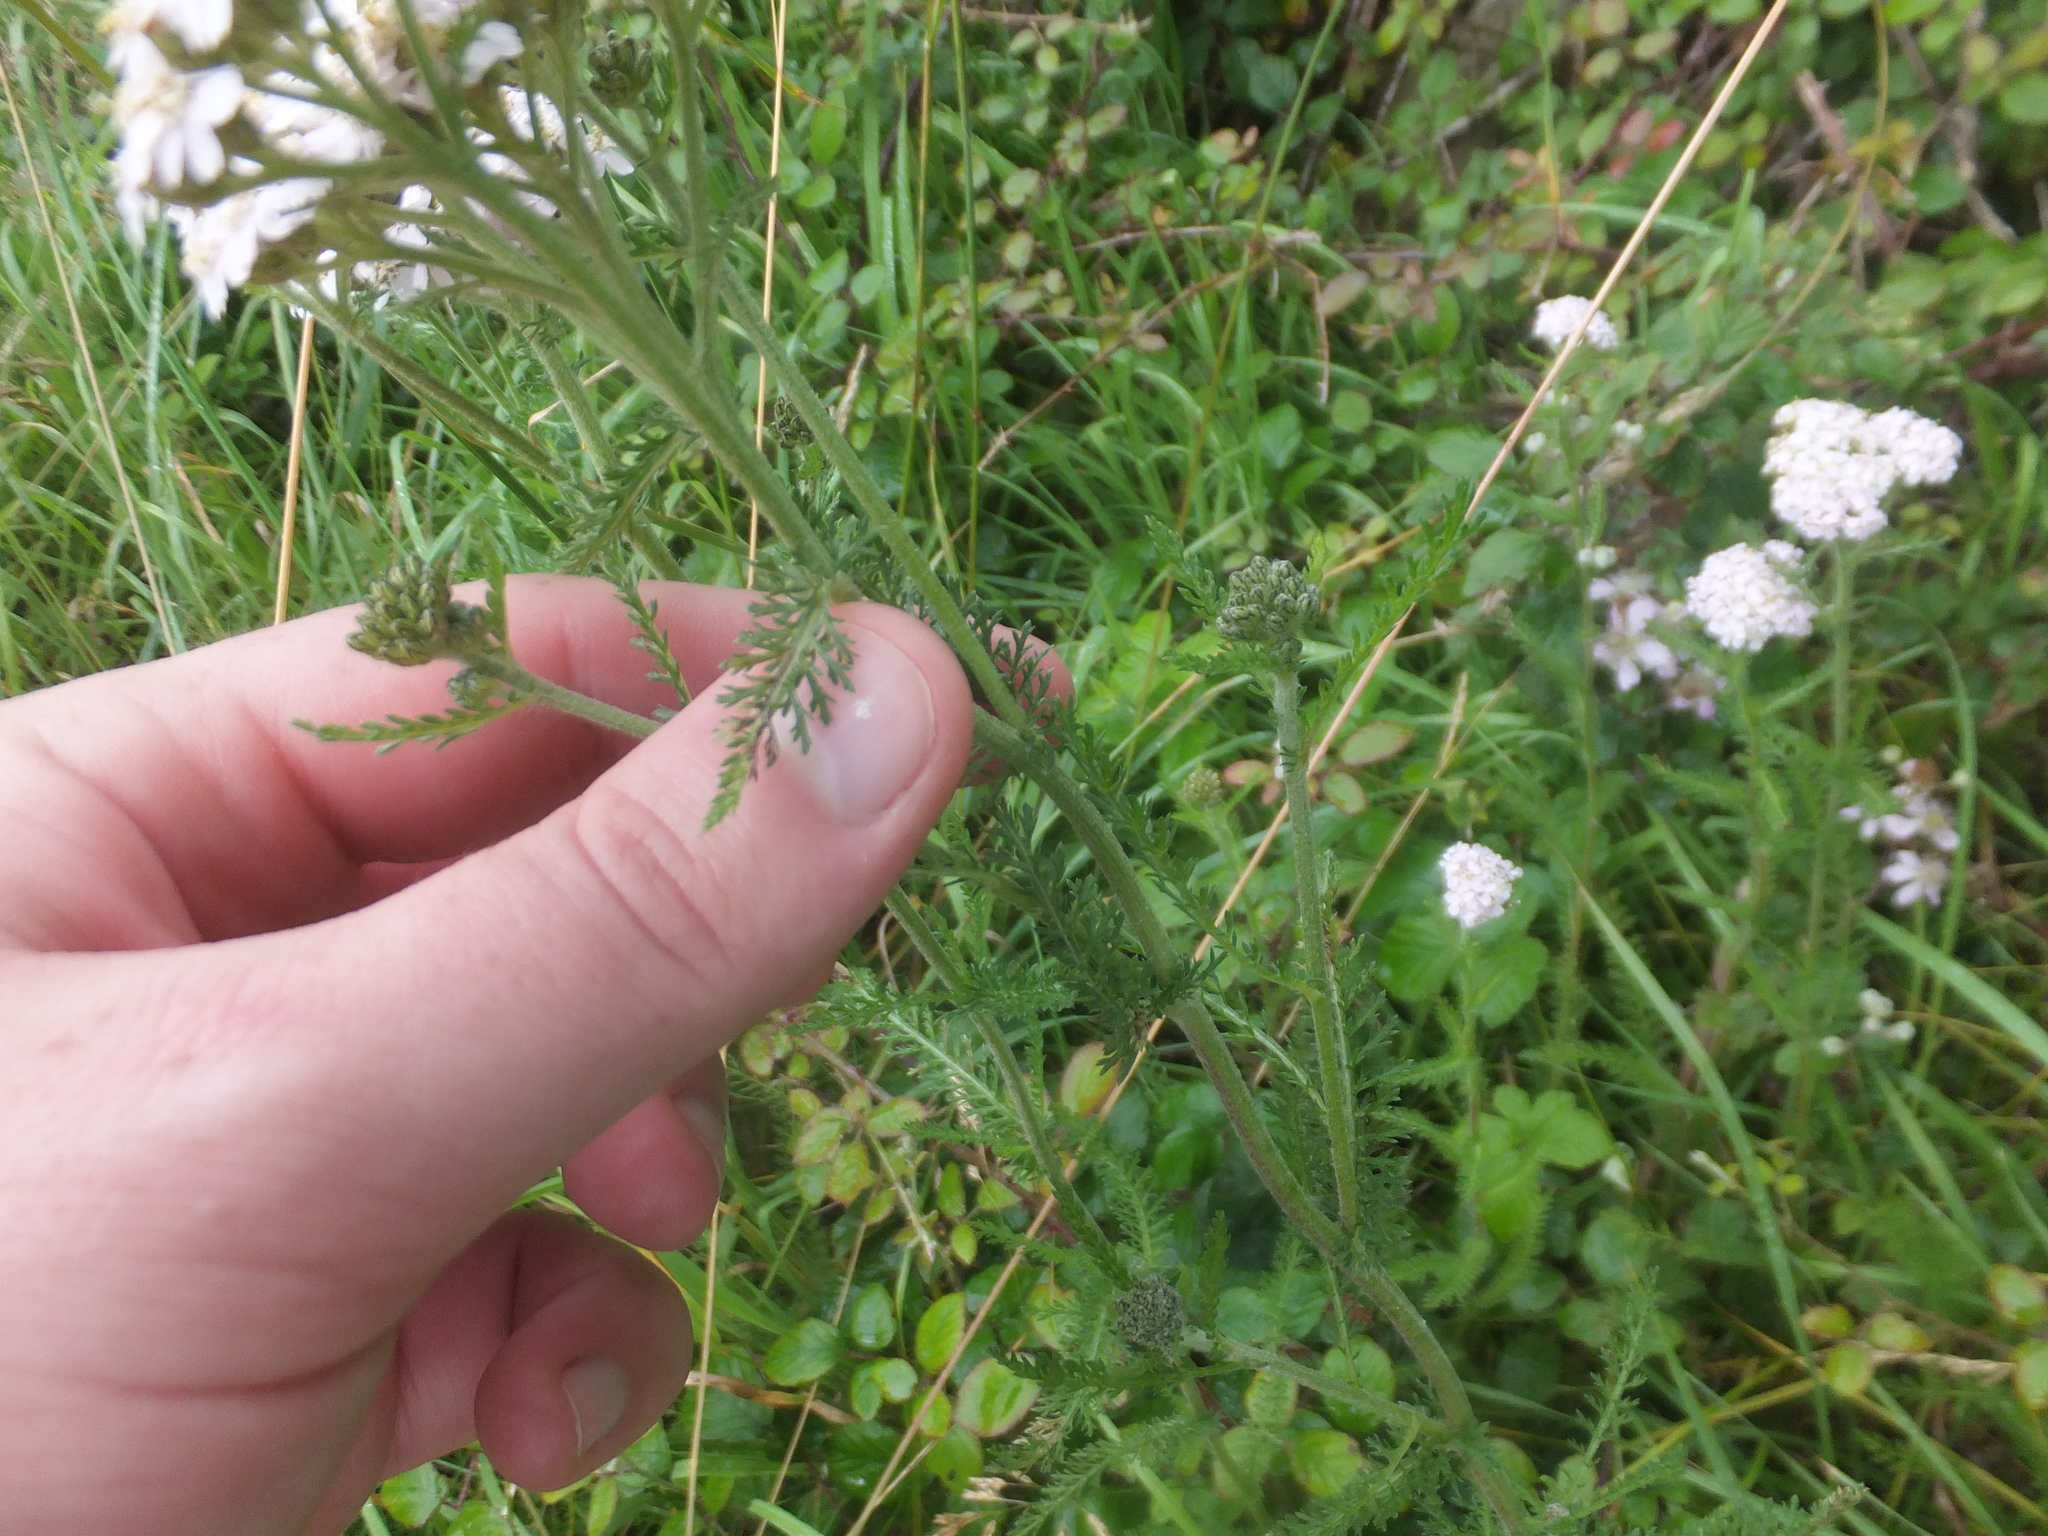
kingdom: Plantae
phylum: Tracheophyta
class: Magnoliopsida
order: Asterales
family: Asteraceae
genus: Achillea
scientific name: Achillea millefolium
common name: Yarrow
